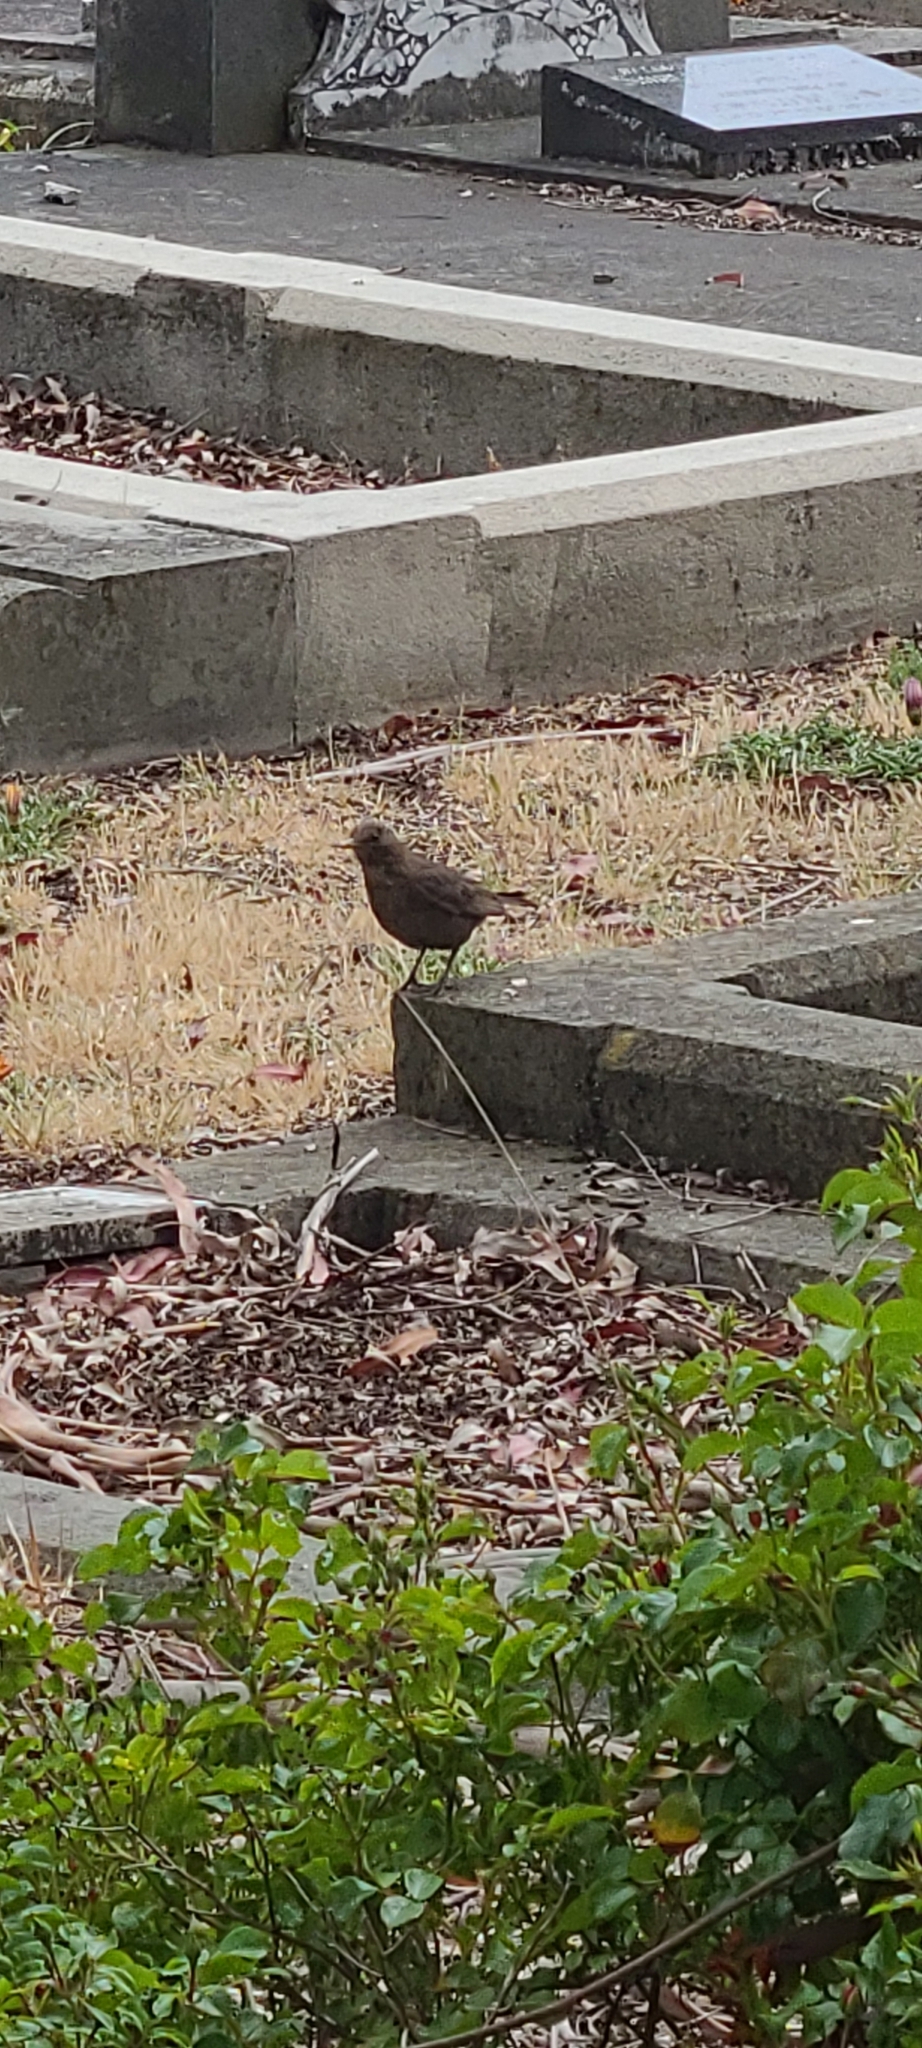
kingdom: Animalia
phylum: Chordata
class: Aves
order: Passeriformes
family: Turdidae
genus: Turdus
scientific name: Turdus merula
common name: Common blackbird
